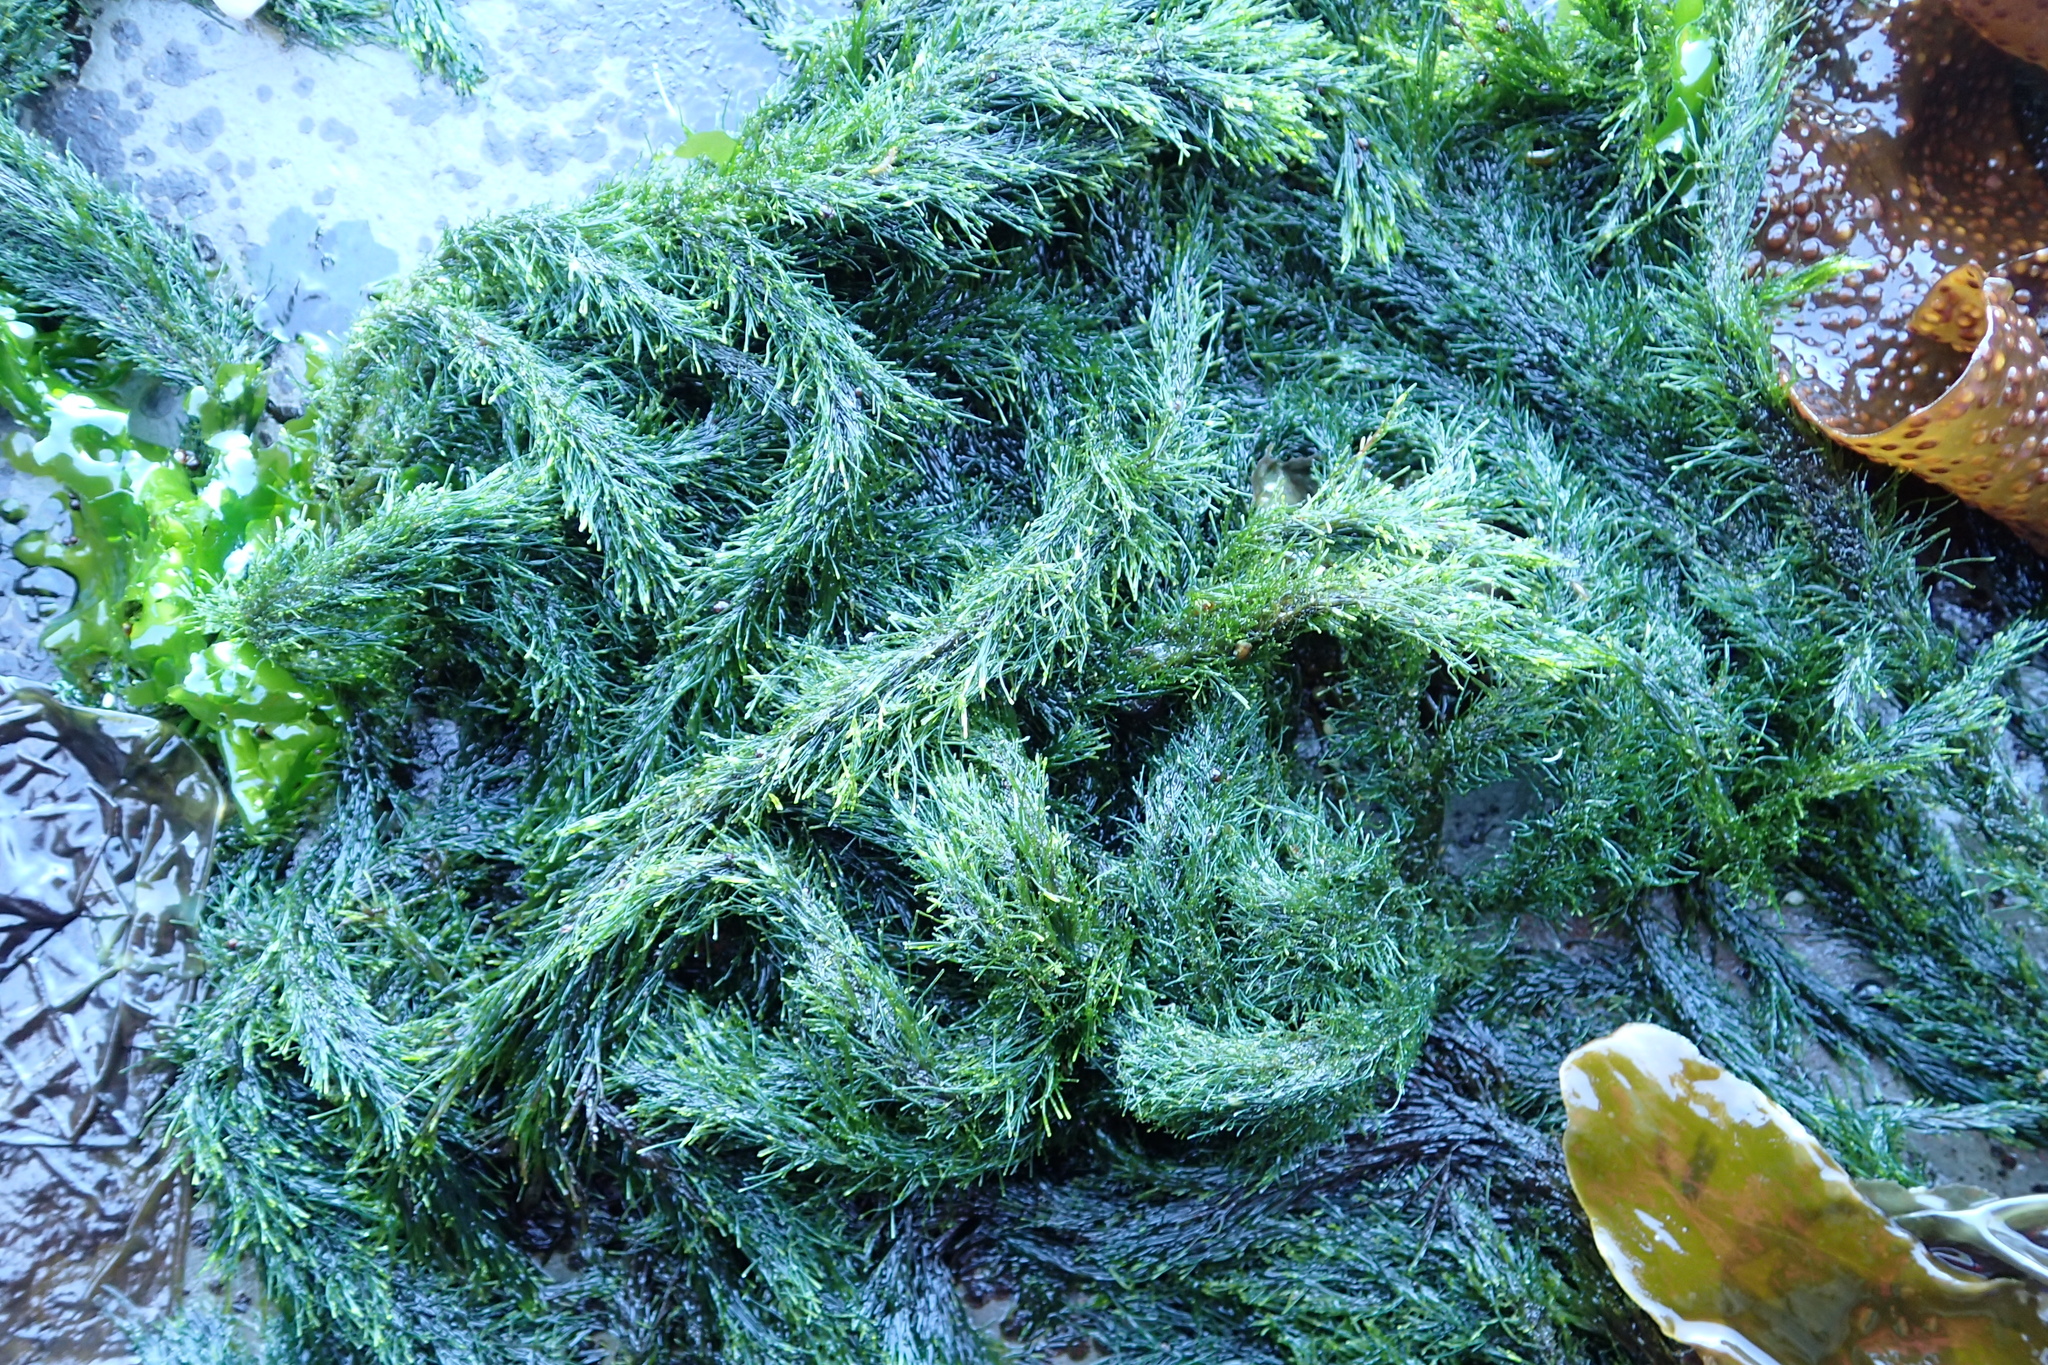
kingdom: Plantae
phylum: Chlorophyta
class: Ulvophyceae
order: Ulotrichales
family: Ulotrichaceae
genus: Acrosiphonia
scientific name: Acrosiphonia
